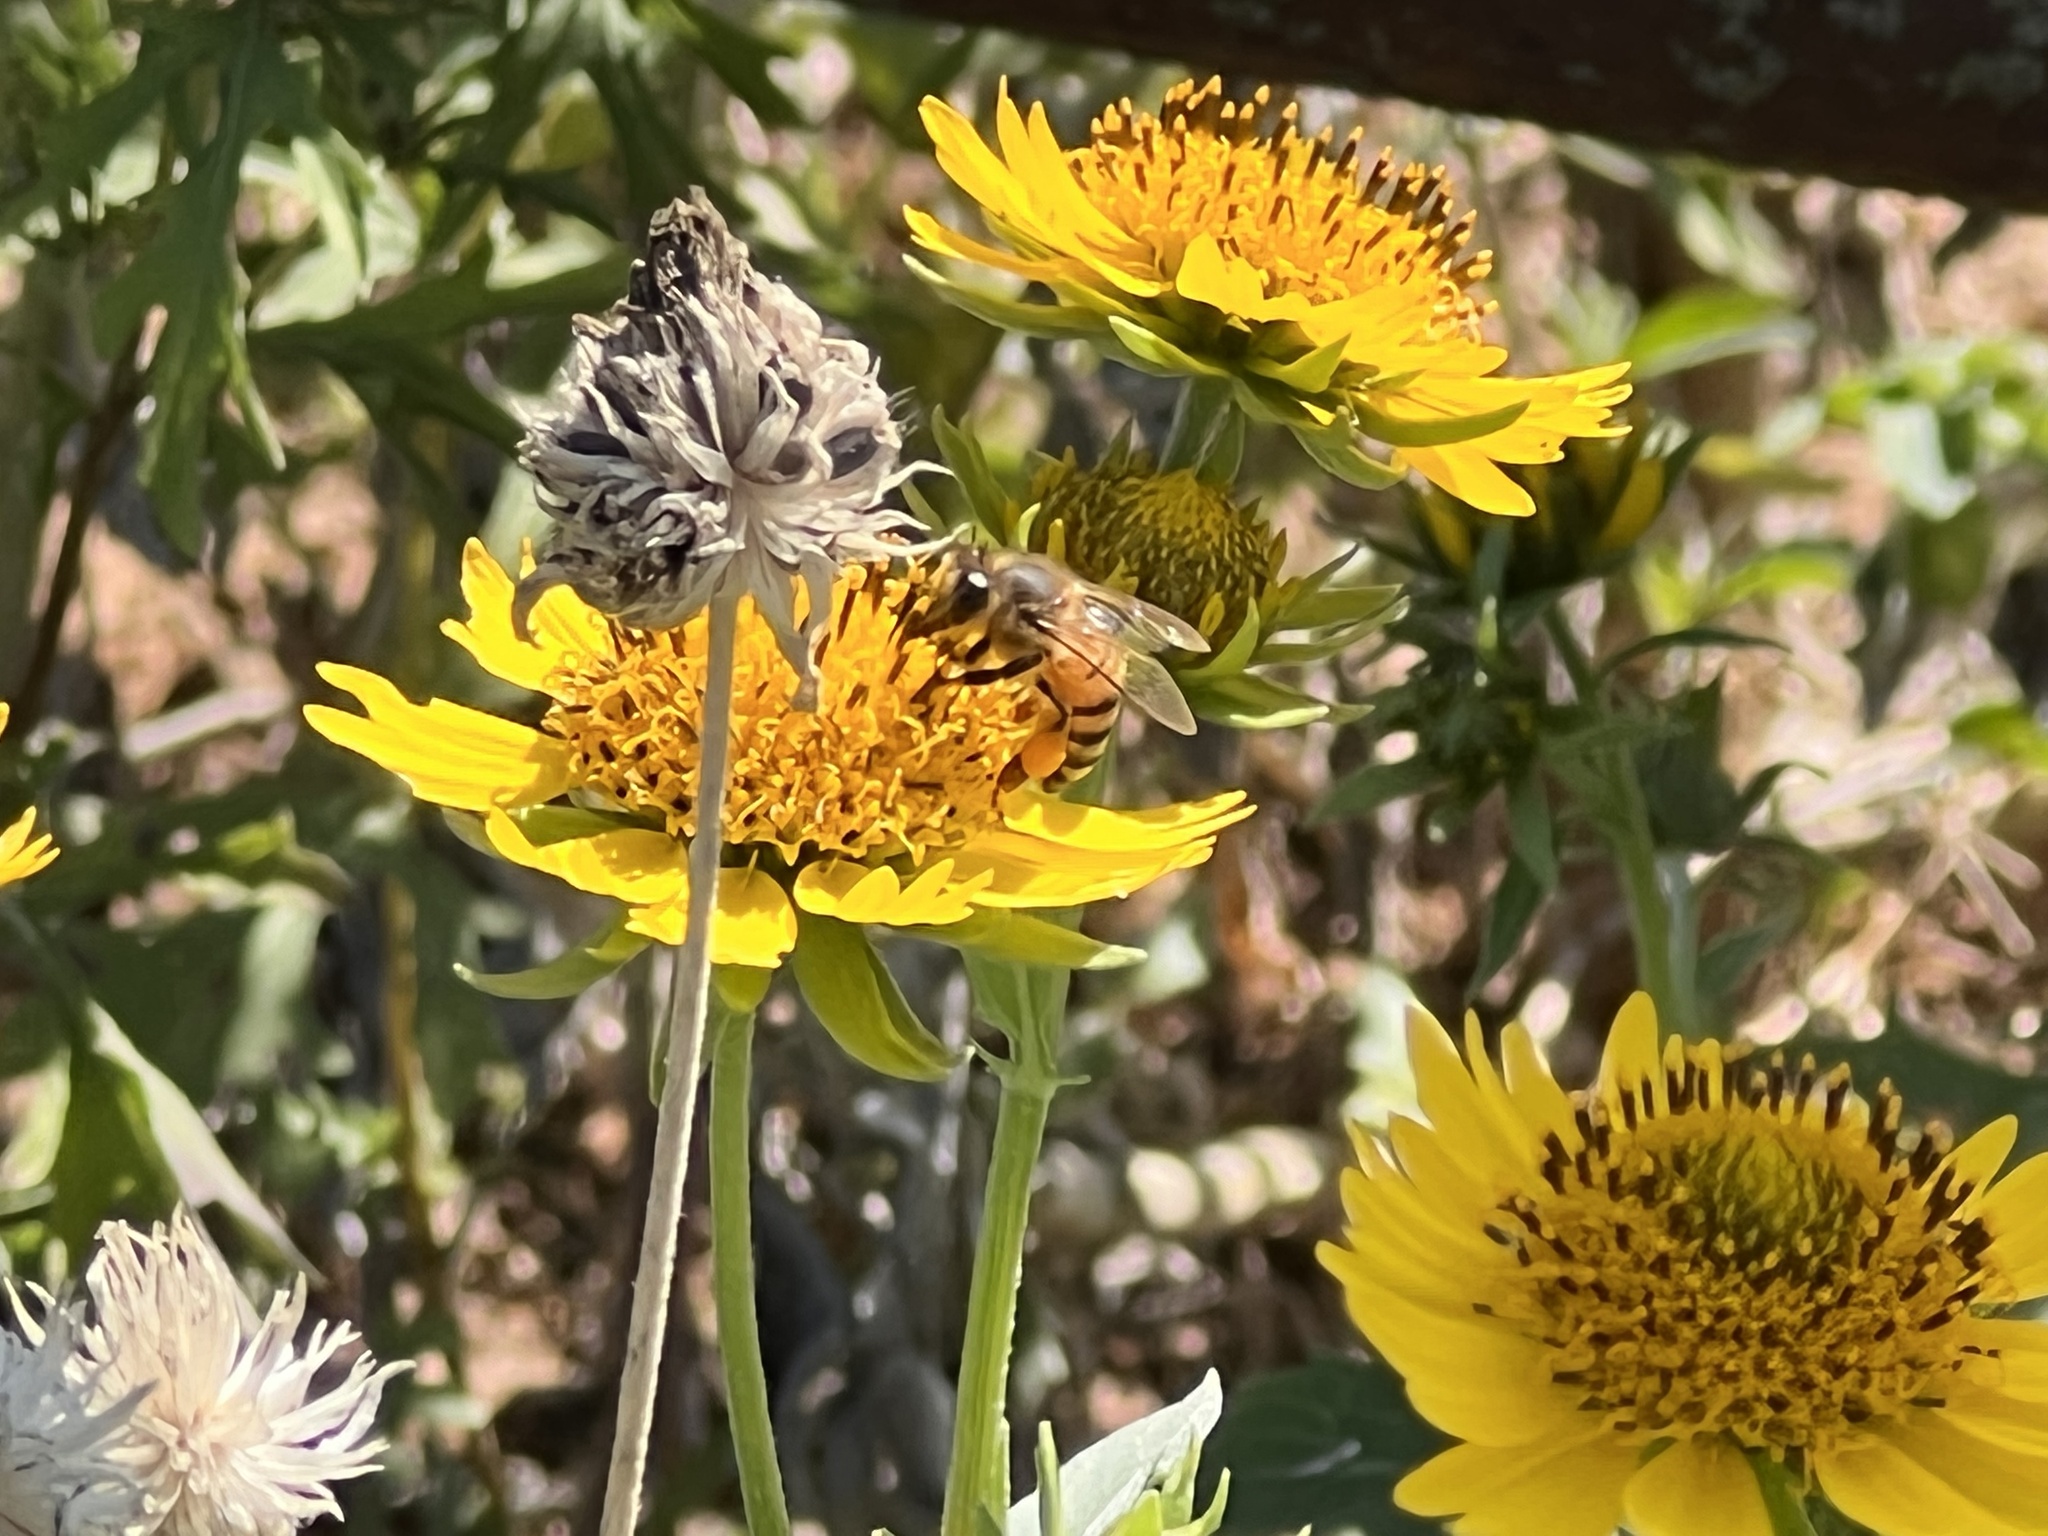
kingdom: Animalia
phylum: Arthropoda
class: Insecta
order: Hymenoptera
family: Apidae
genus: Apis
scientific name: Apis mellifera
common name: Honey bee
